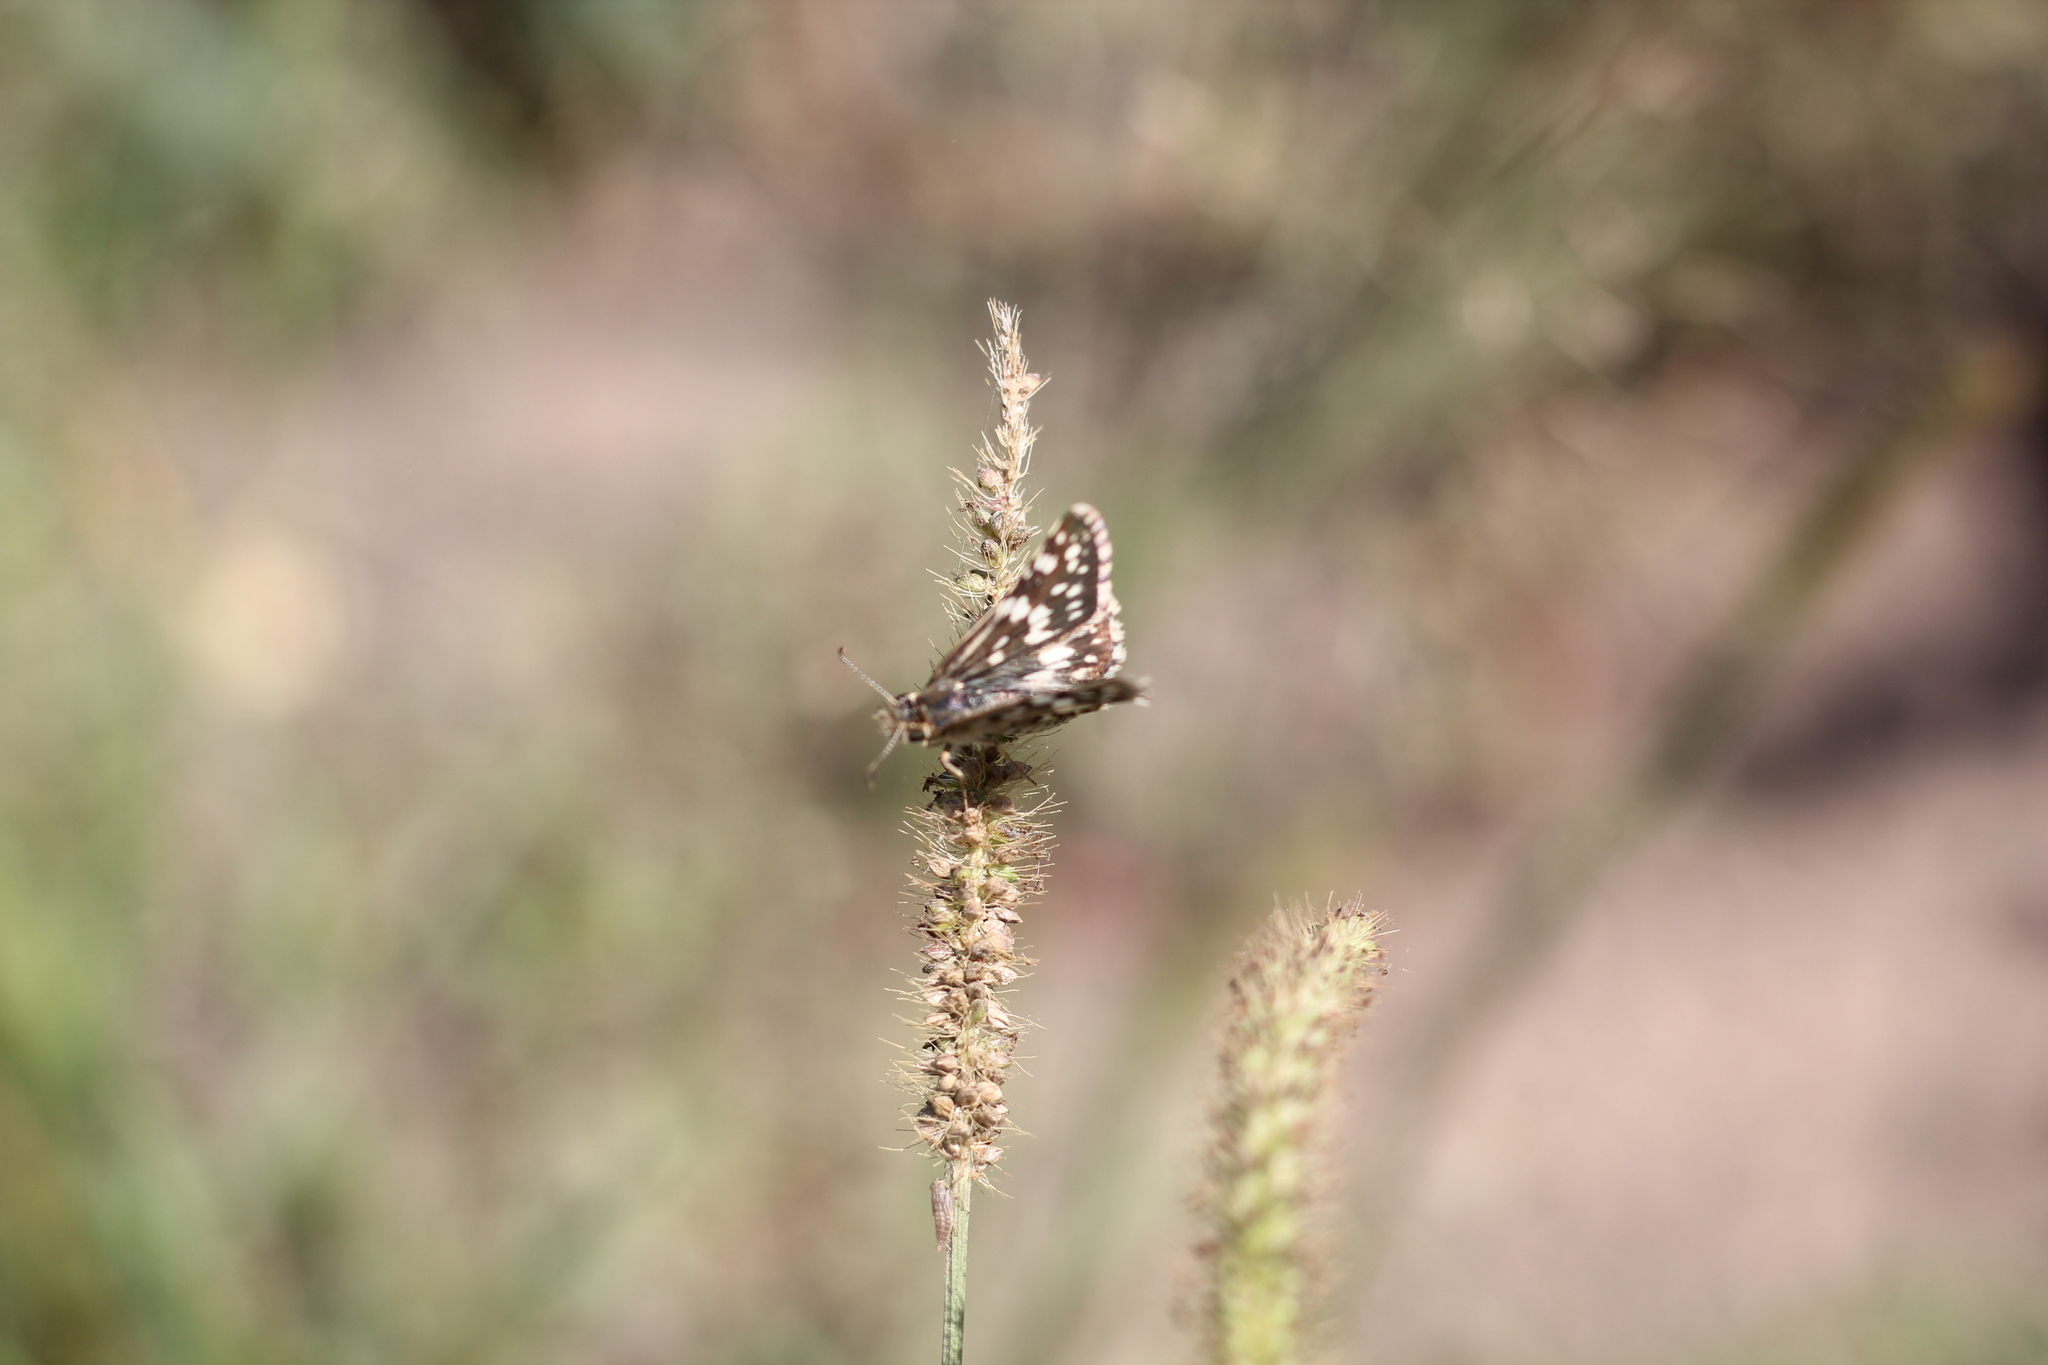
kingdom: Animalia
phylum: Arthropoda
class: Insecta
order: Lepidoptera
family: Hesperiidae
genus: Burnsius
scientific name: Burnsius orcynoides
